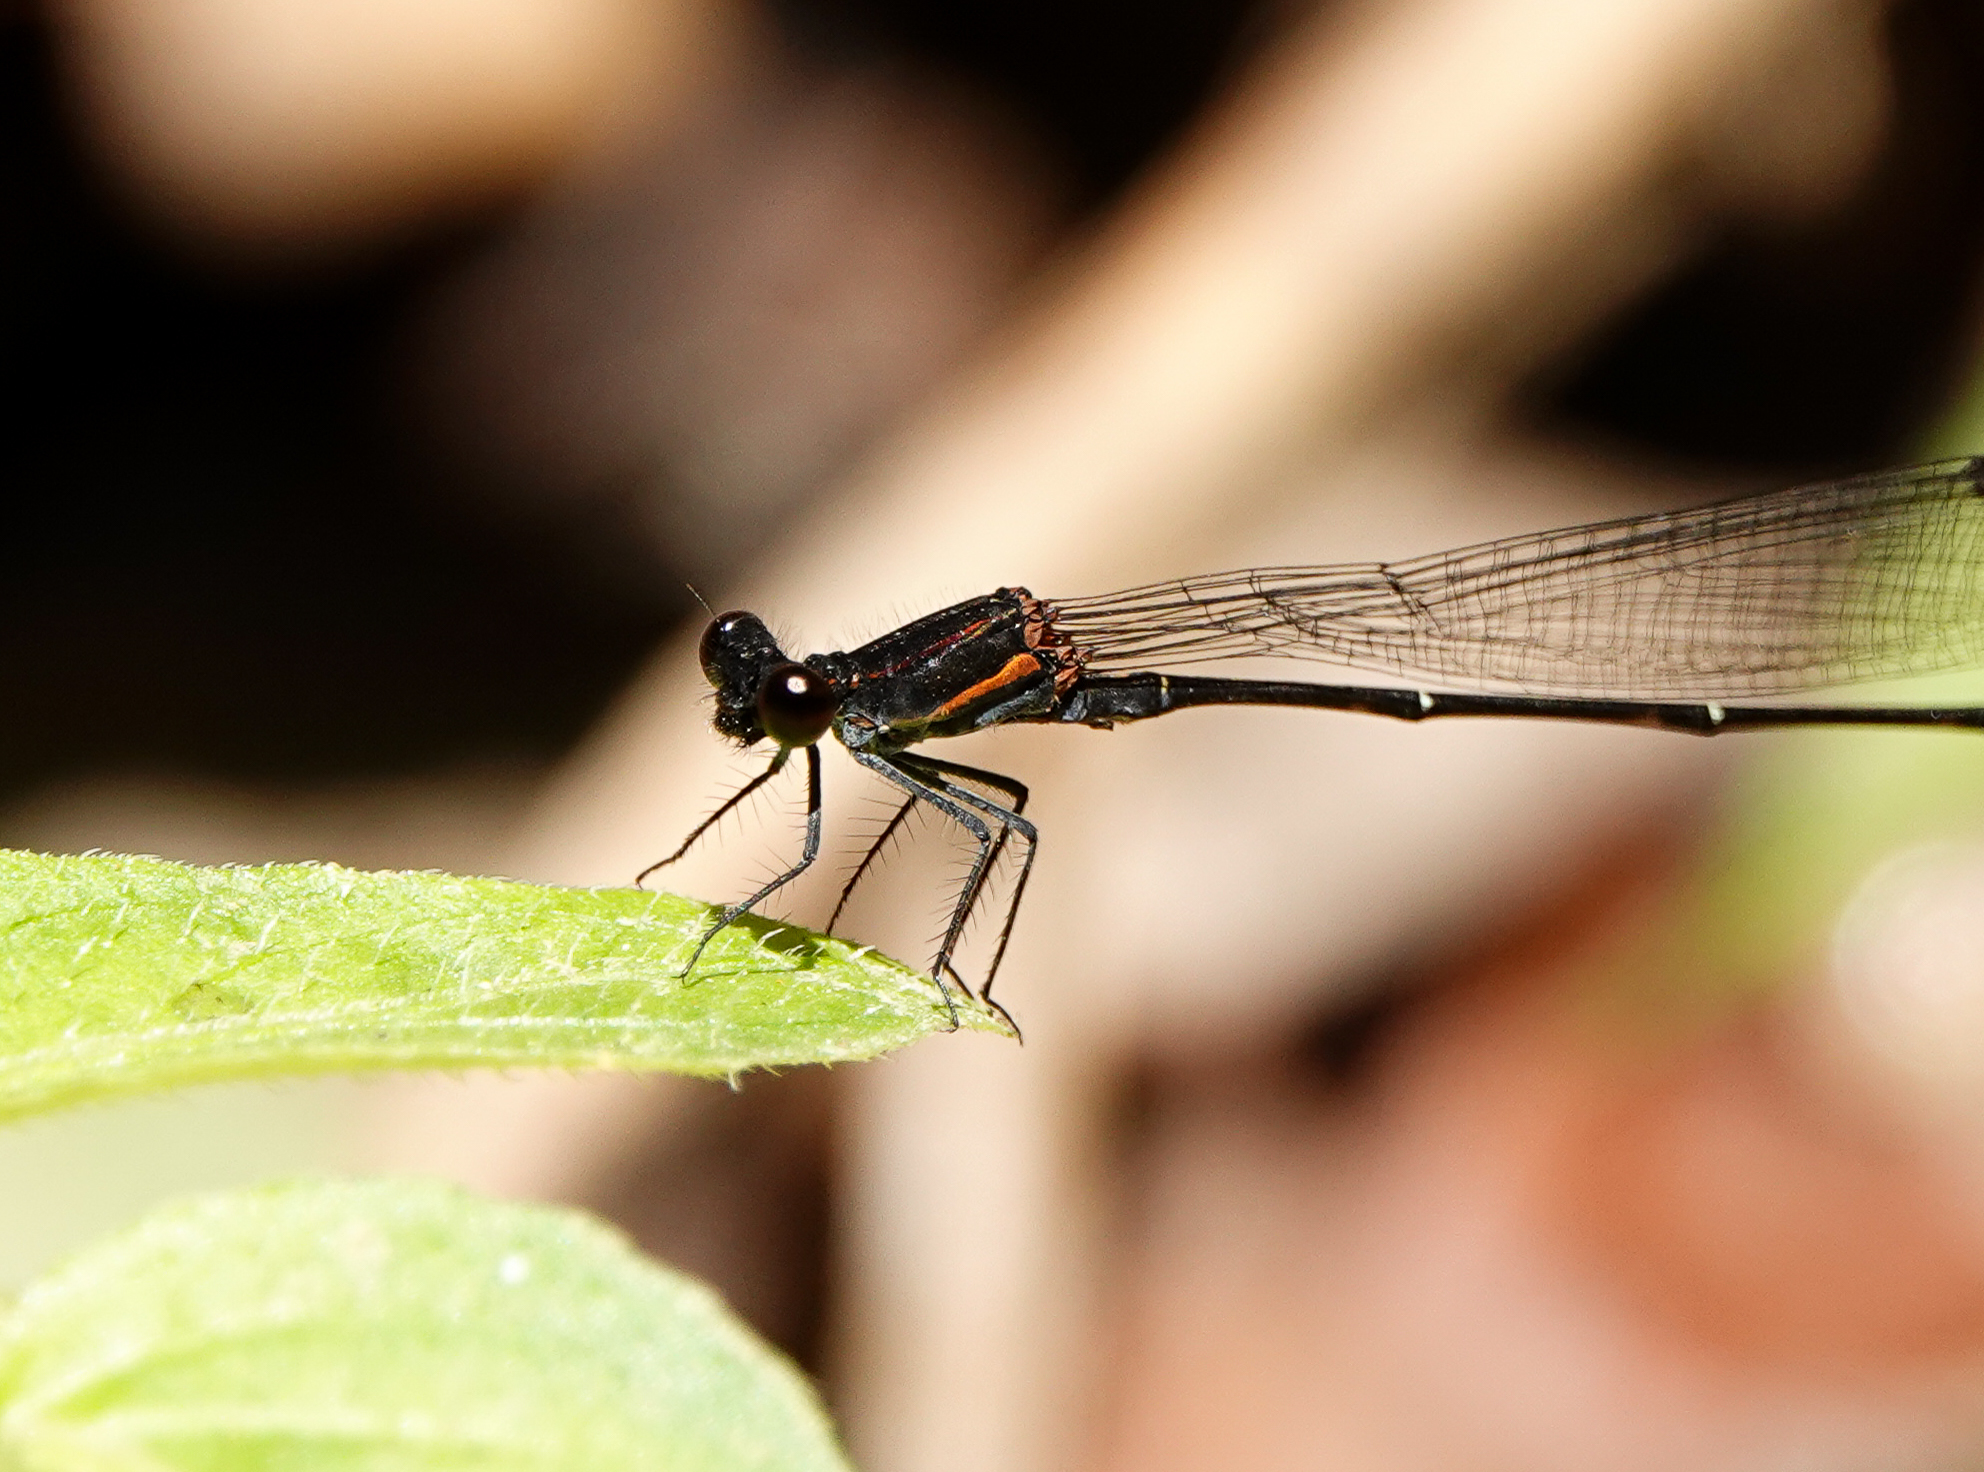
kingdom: Animalia
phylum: Arthropoda
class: Insecta
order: Odonata
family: Platycnemididae
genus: Prodasineura
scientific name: Prodasineura verticalis
